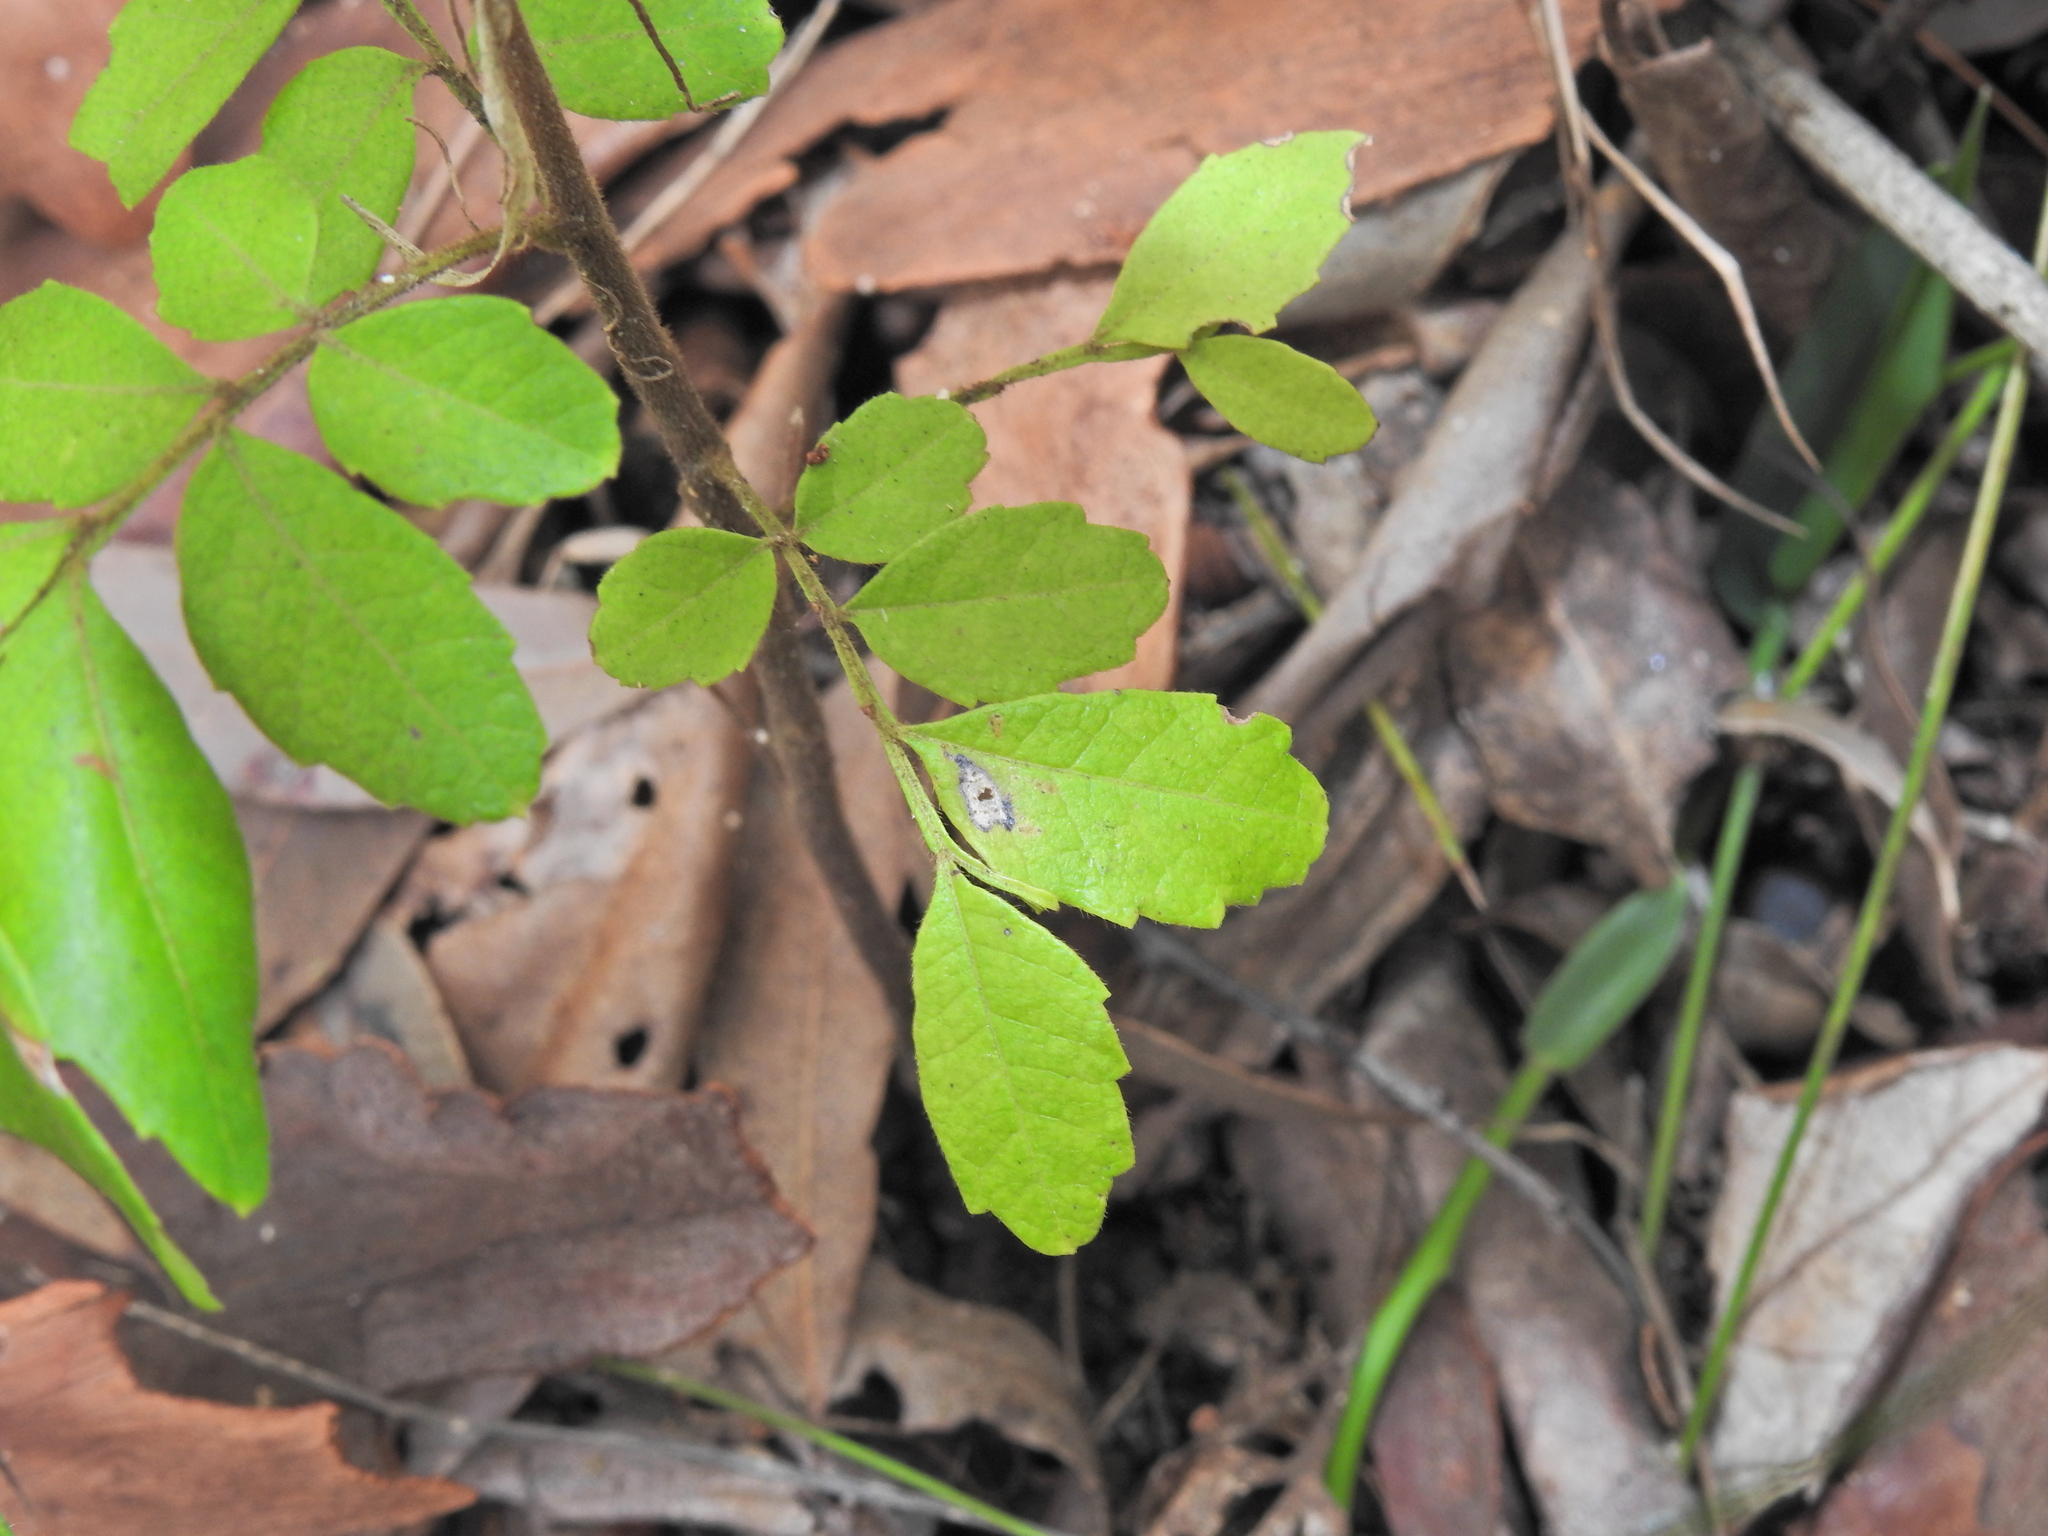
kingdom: Plantae
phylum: Tracheophyta
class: Magnoliopsida
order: Sapindales
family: Sapindaceae
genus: Jagera
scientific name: Jagera pseudorhus
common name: Fern-leaf-tamarind
